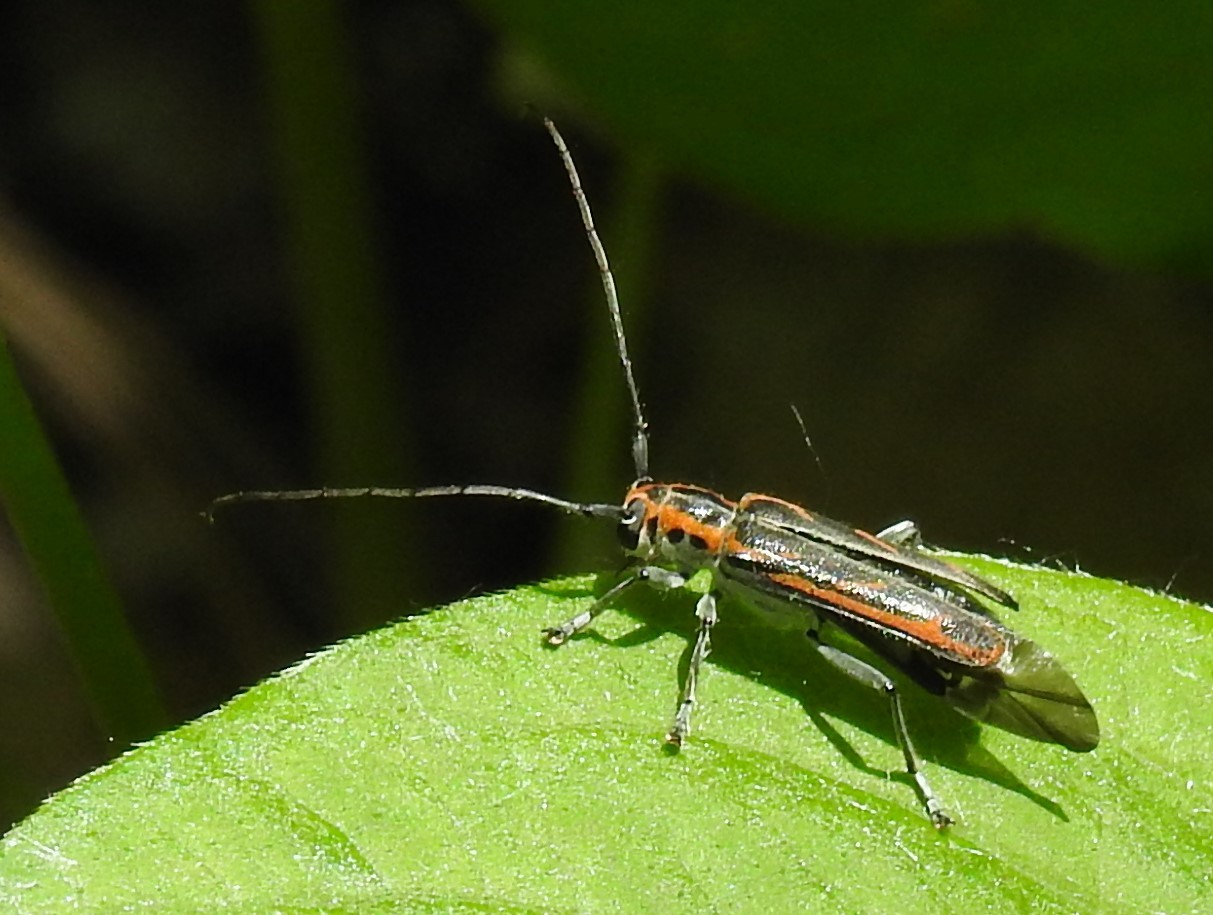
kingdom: Animalia
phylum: Arthropoda
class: Insecta
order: Coleoptera
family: Cerambycidae
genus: Saperda
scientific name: Saperda imitans
